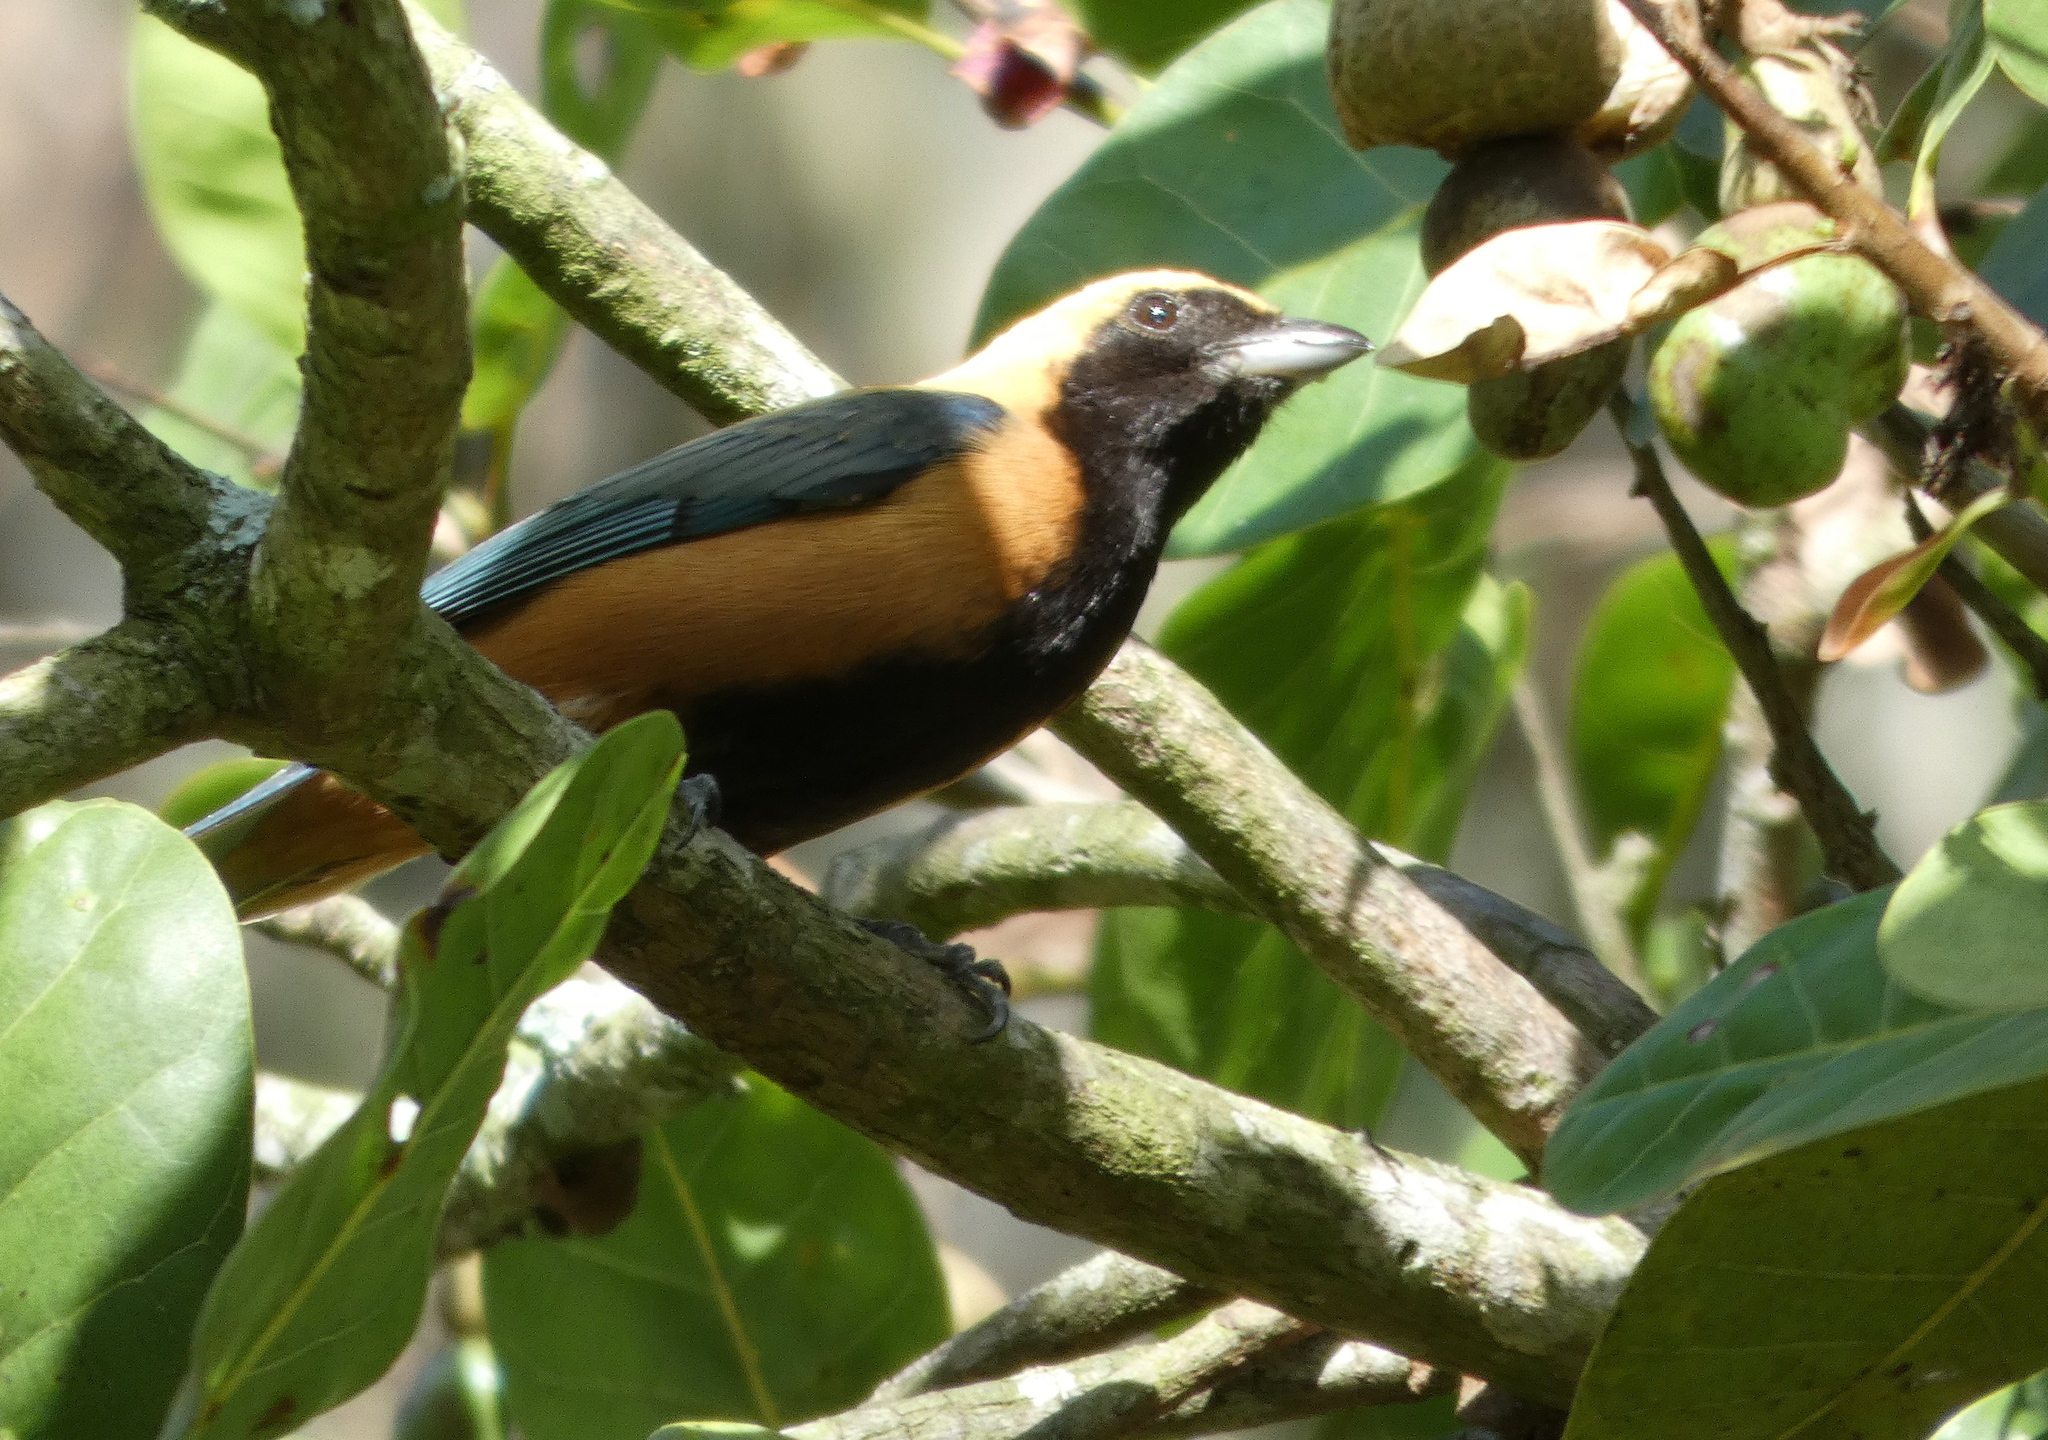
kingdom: Animalia
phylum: Chordata
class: Aves
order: Passeriformes
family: Thraupidae
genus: Stilpnia
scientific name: Stilpnia cayana
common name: Burnished-buff tanager
